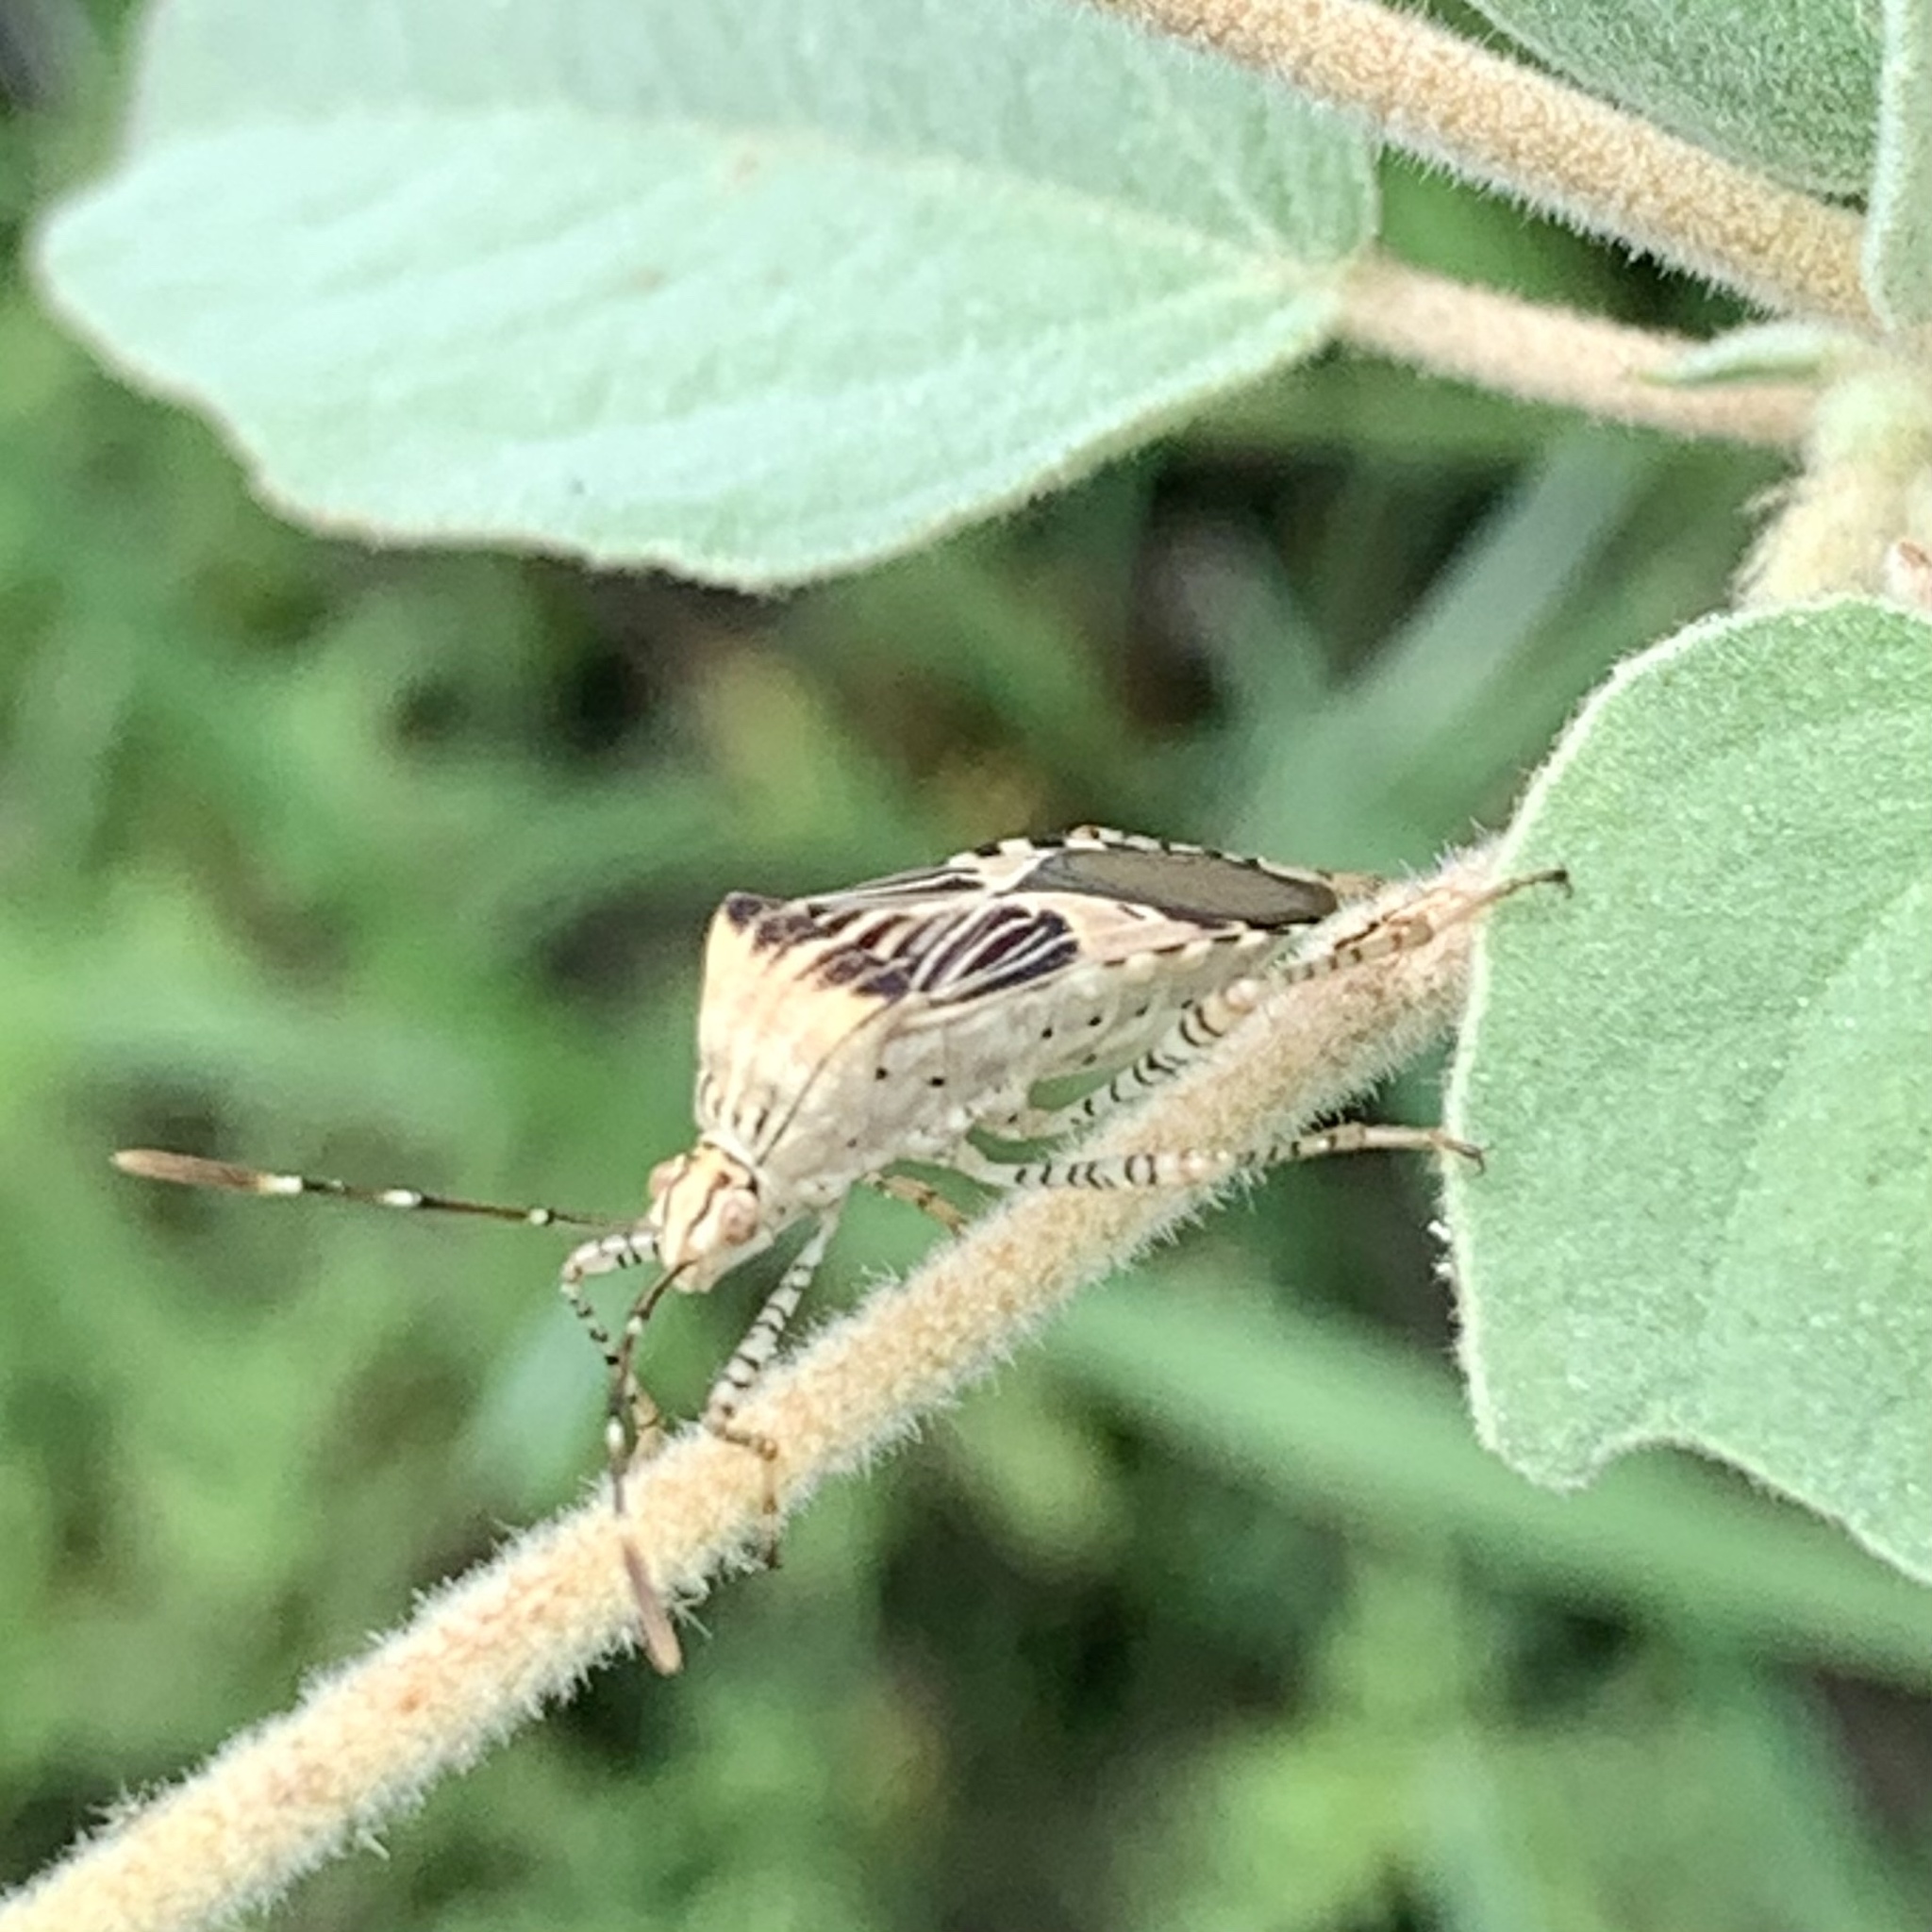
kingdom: Animalia
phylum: Arthropoda
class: Insecta
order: Hemiptera
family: Coreidae
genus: Hypselonotus
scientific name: Hypselonotus punctiventris
